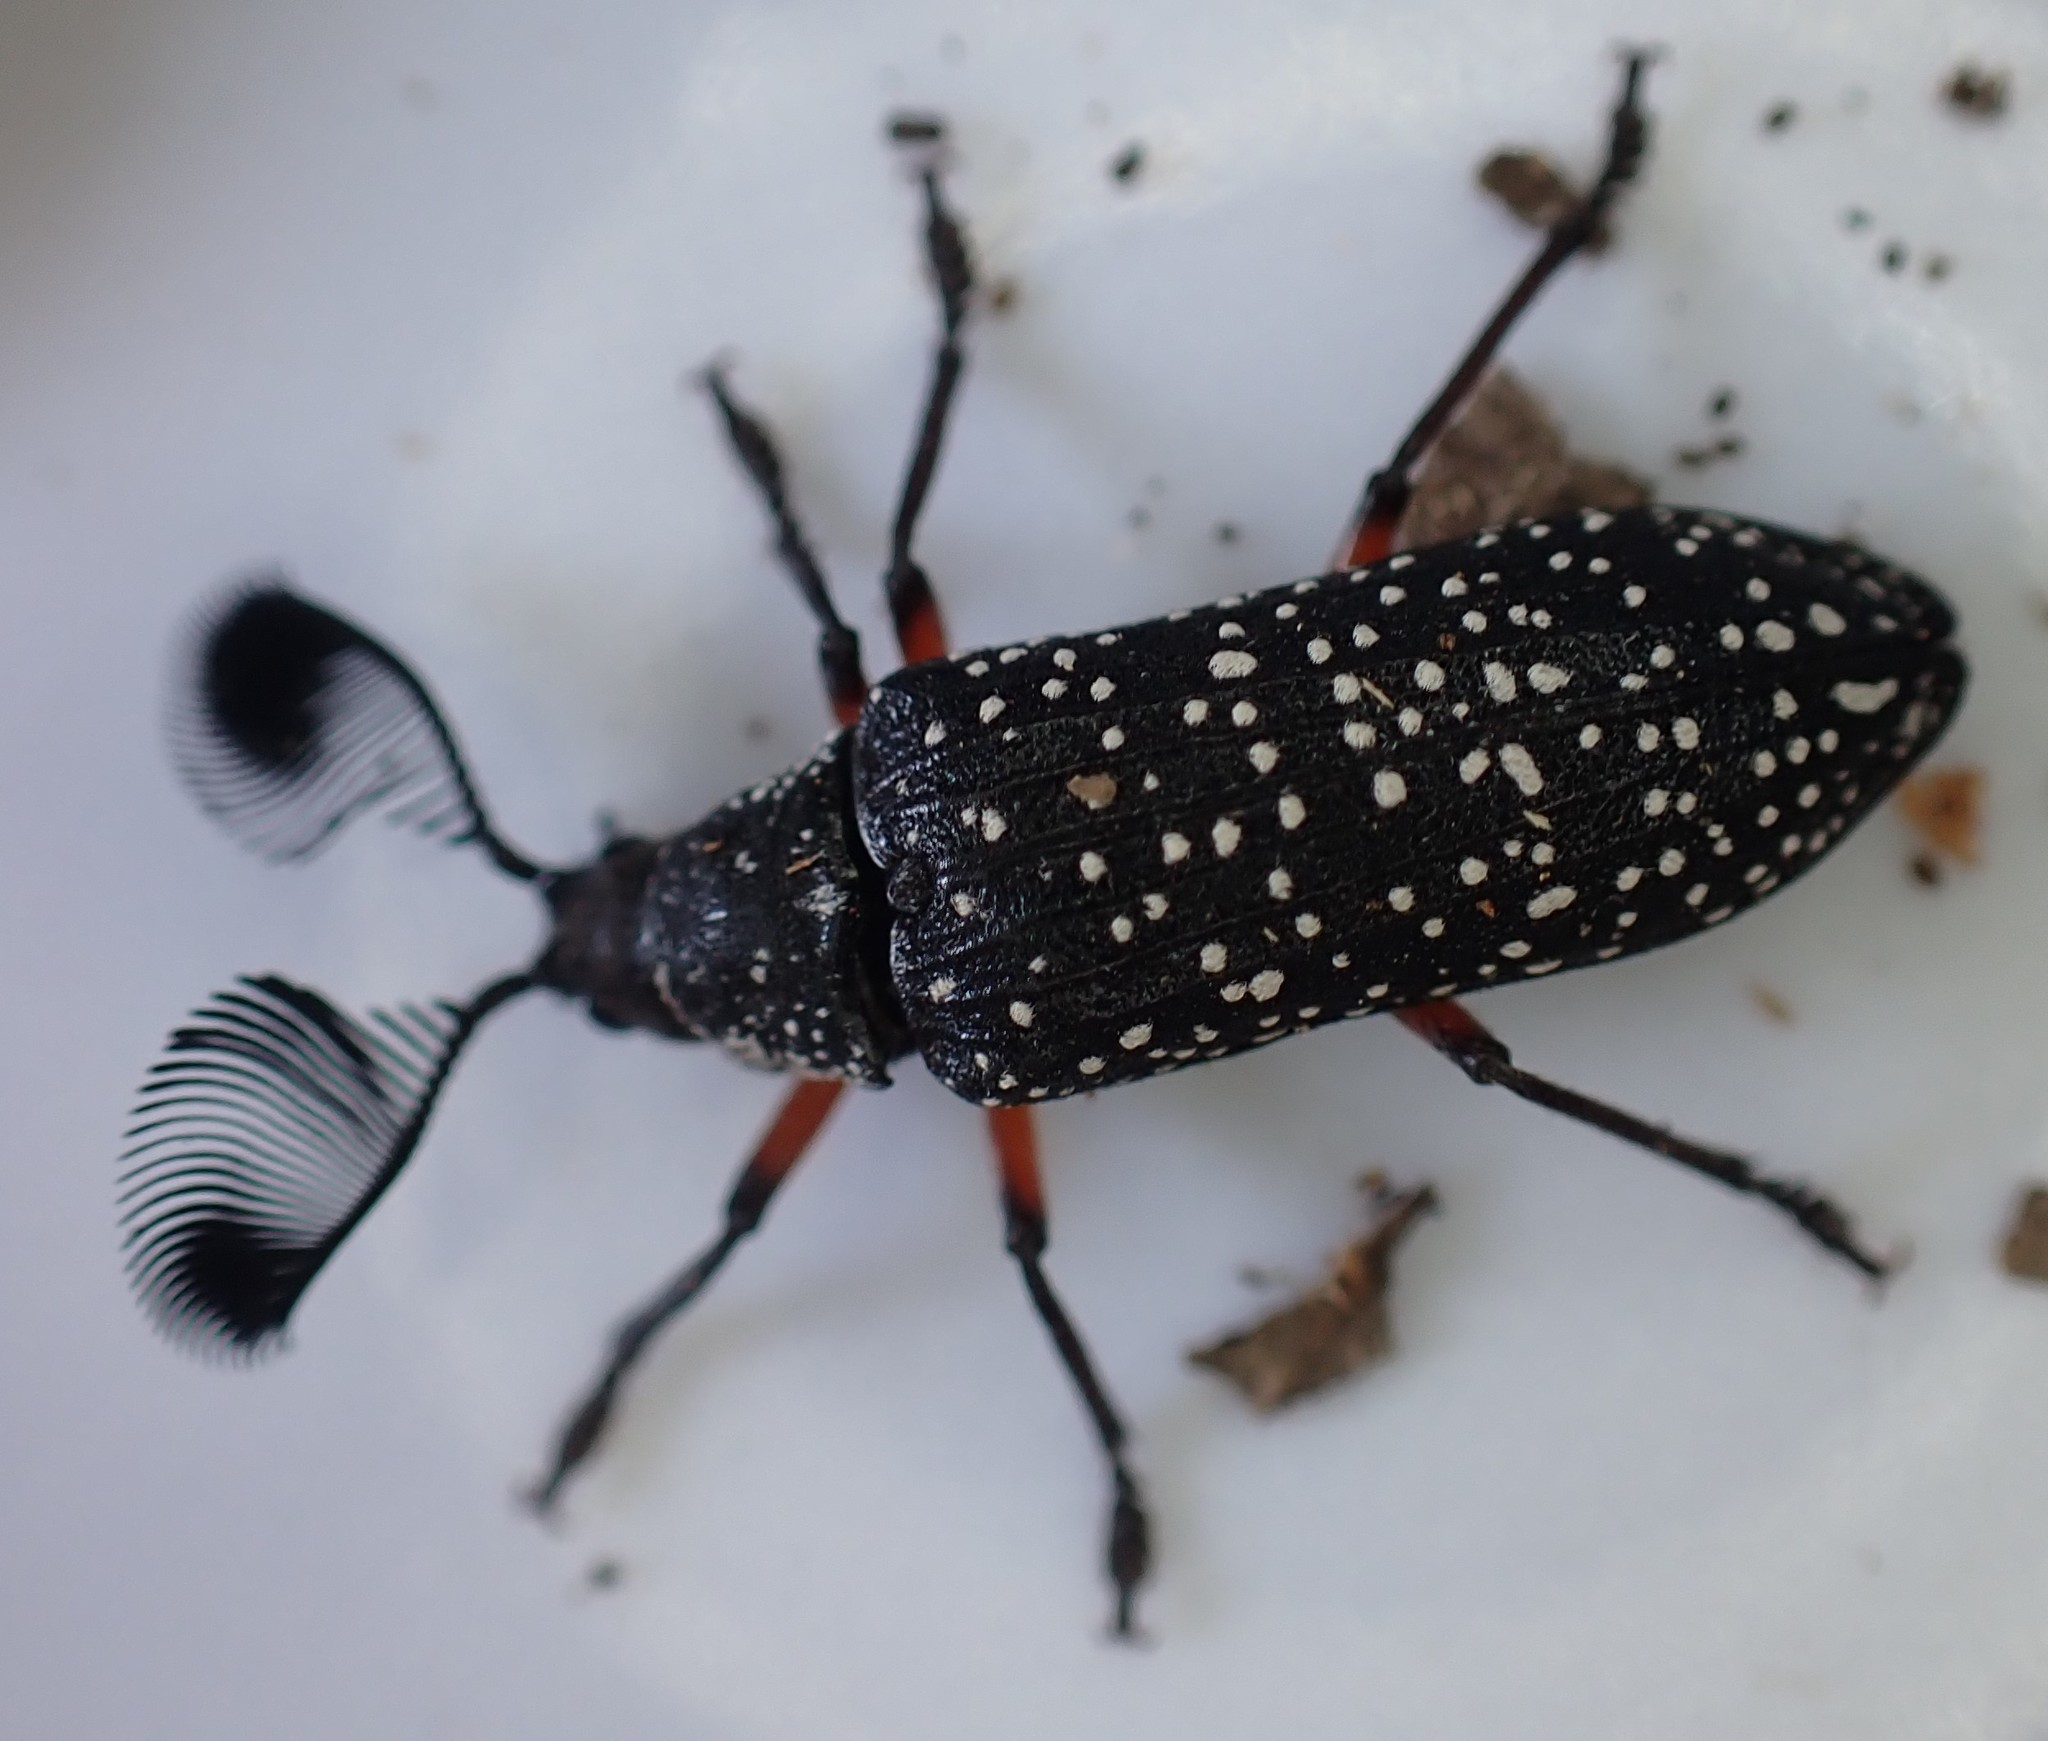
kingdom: Animalia
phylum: Arthropoda
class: Insecta
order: Coleoptera
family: Rhipiceridae
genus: Rhipicera
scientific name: Rhipicera femorata
